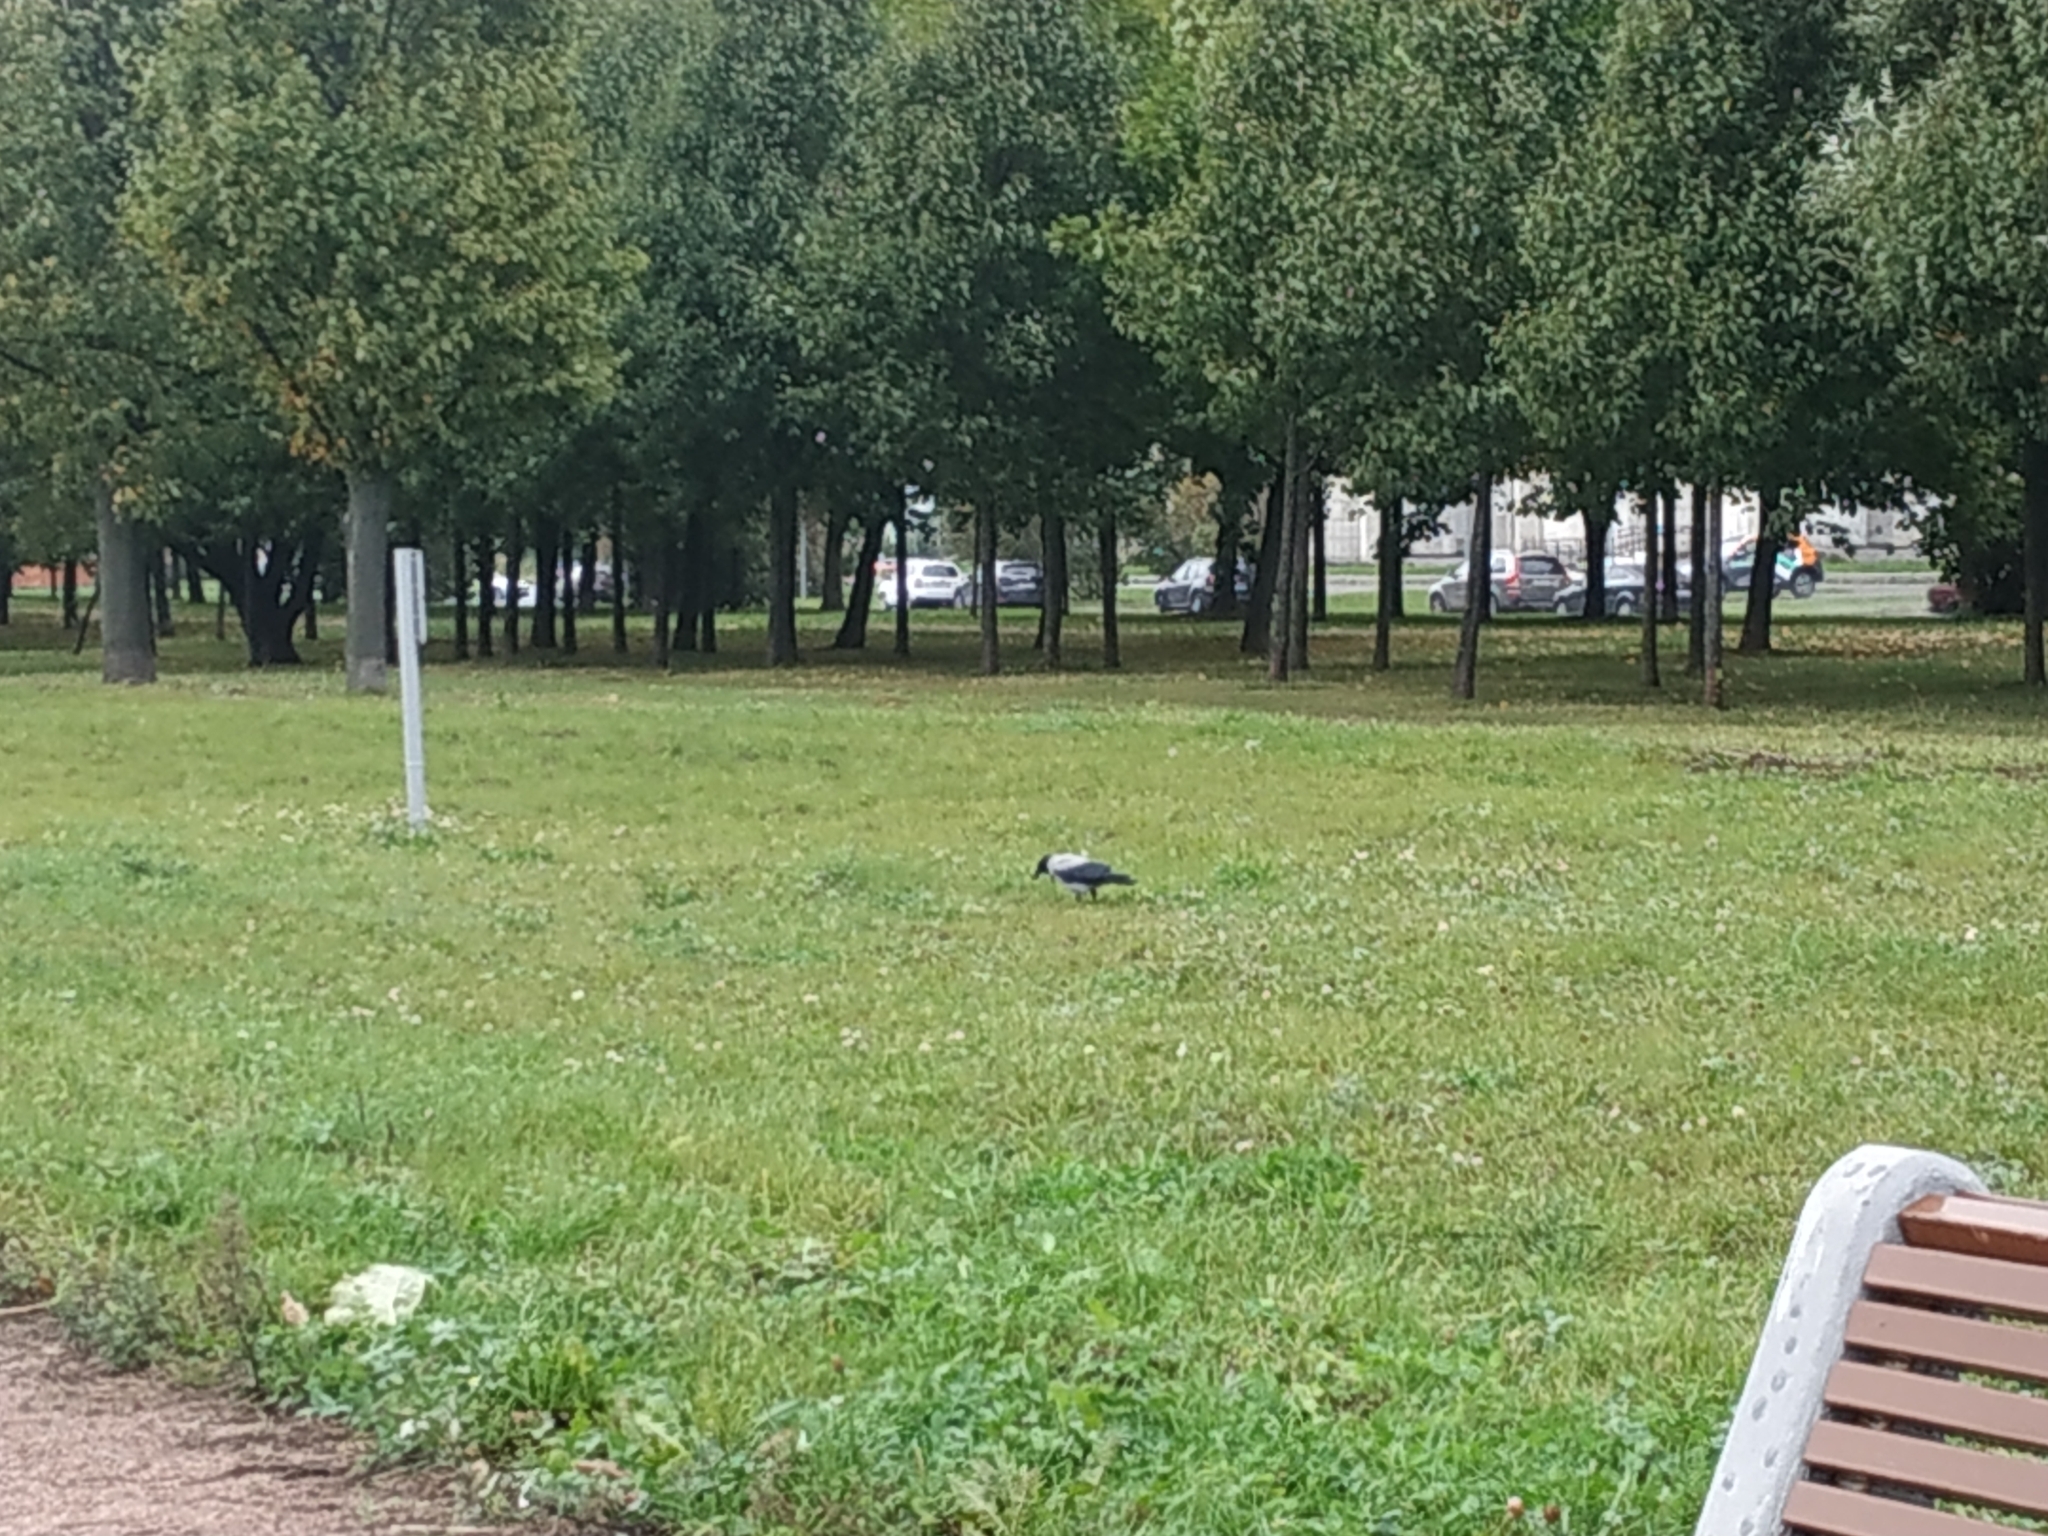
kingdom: Animalia
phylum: Chordata
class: Aves
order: Passeriformes
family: Corvidae
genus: Corvus
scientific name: Corvus cornix
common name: Hooded crow
